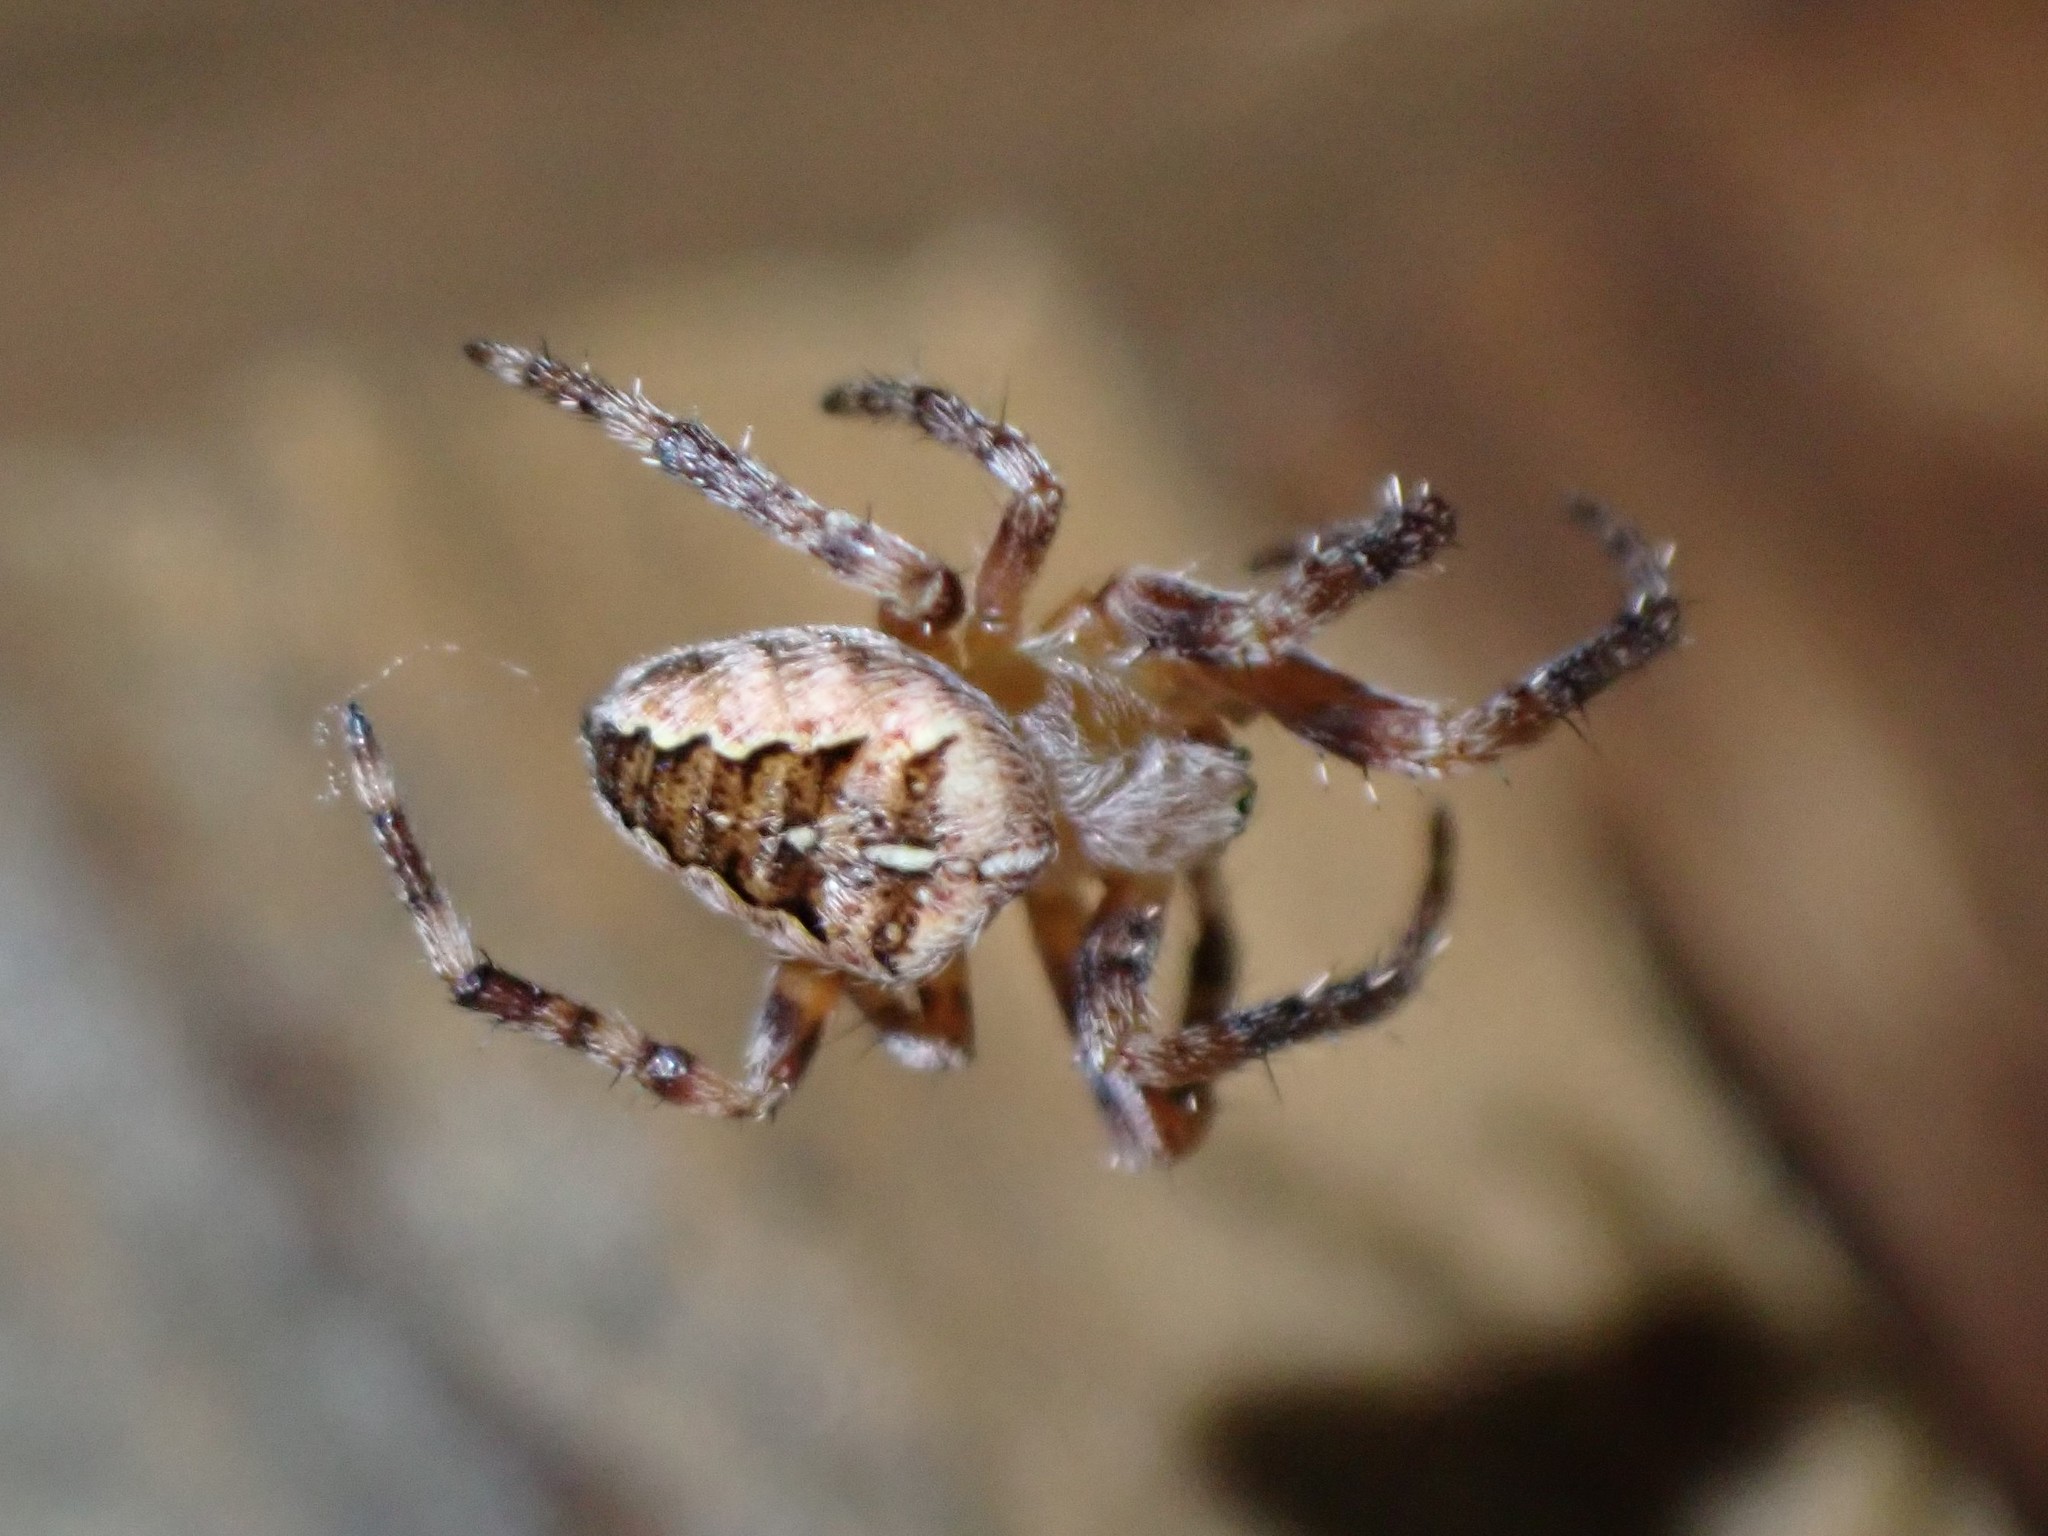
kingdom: Animalia
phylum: Arthropoda
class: Arachnida
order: Araneae
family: Araneidae
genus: Araneus
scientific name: Araneus diadematus
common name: Cross orbweaver
